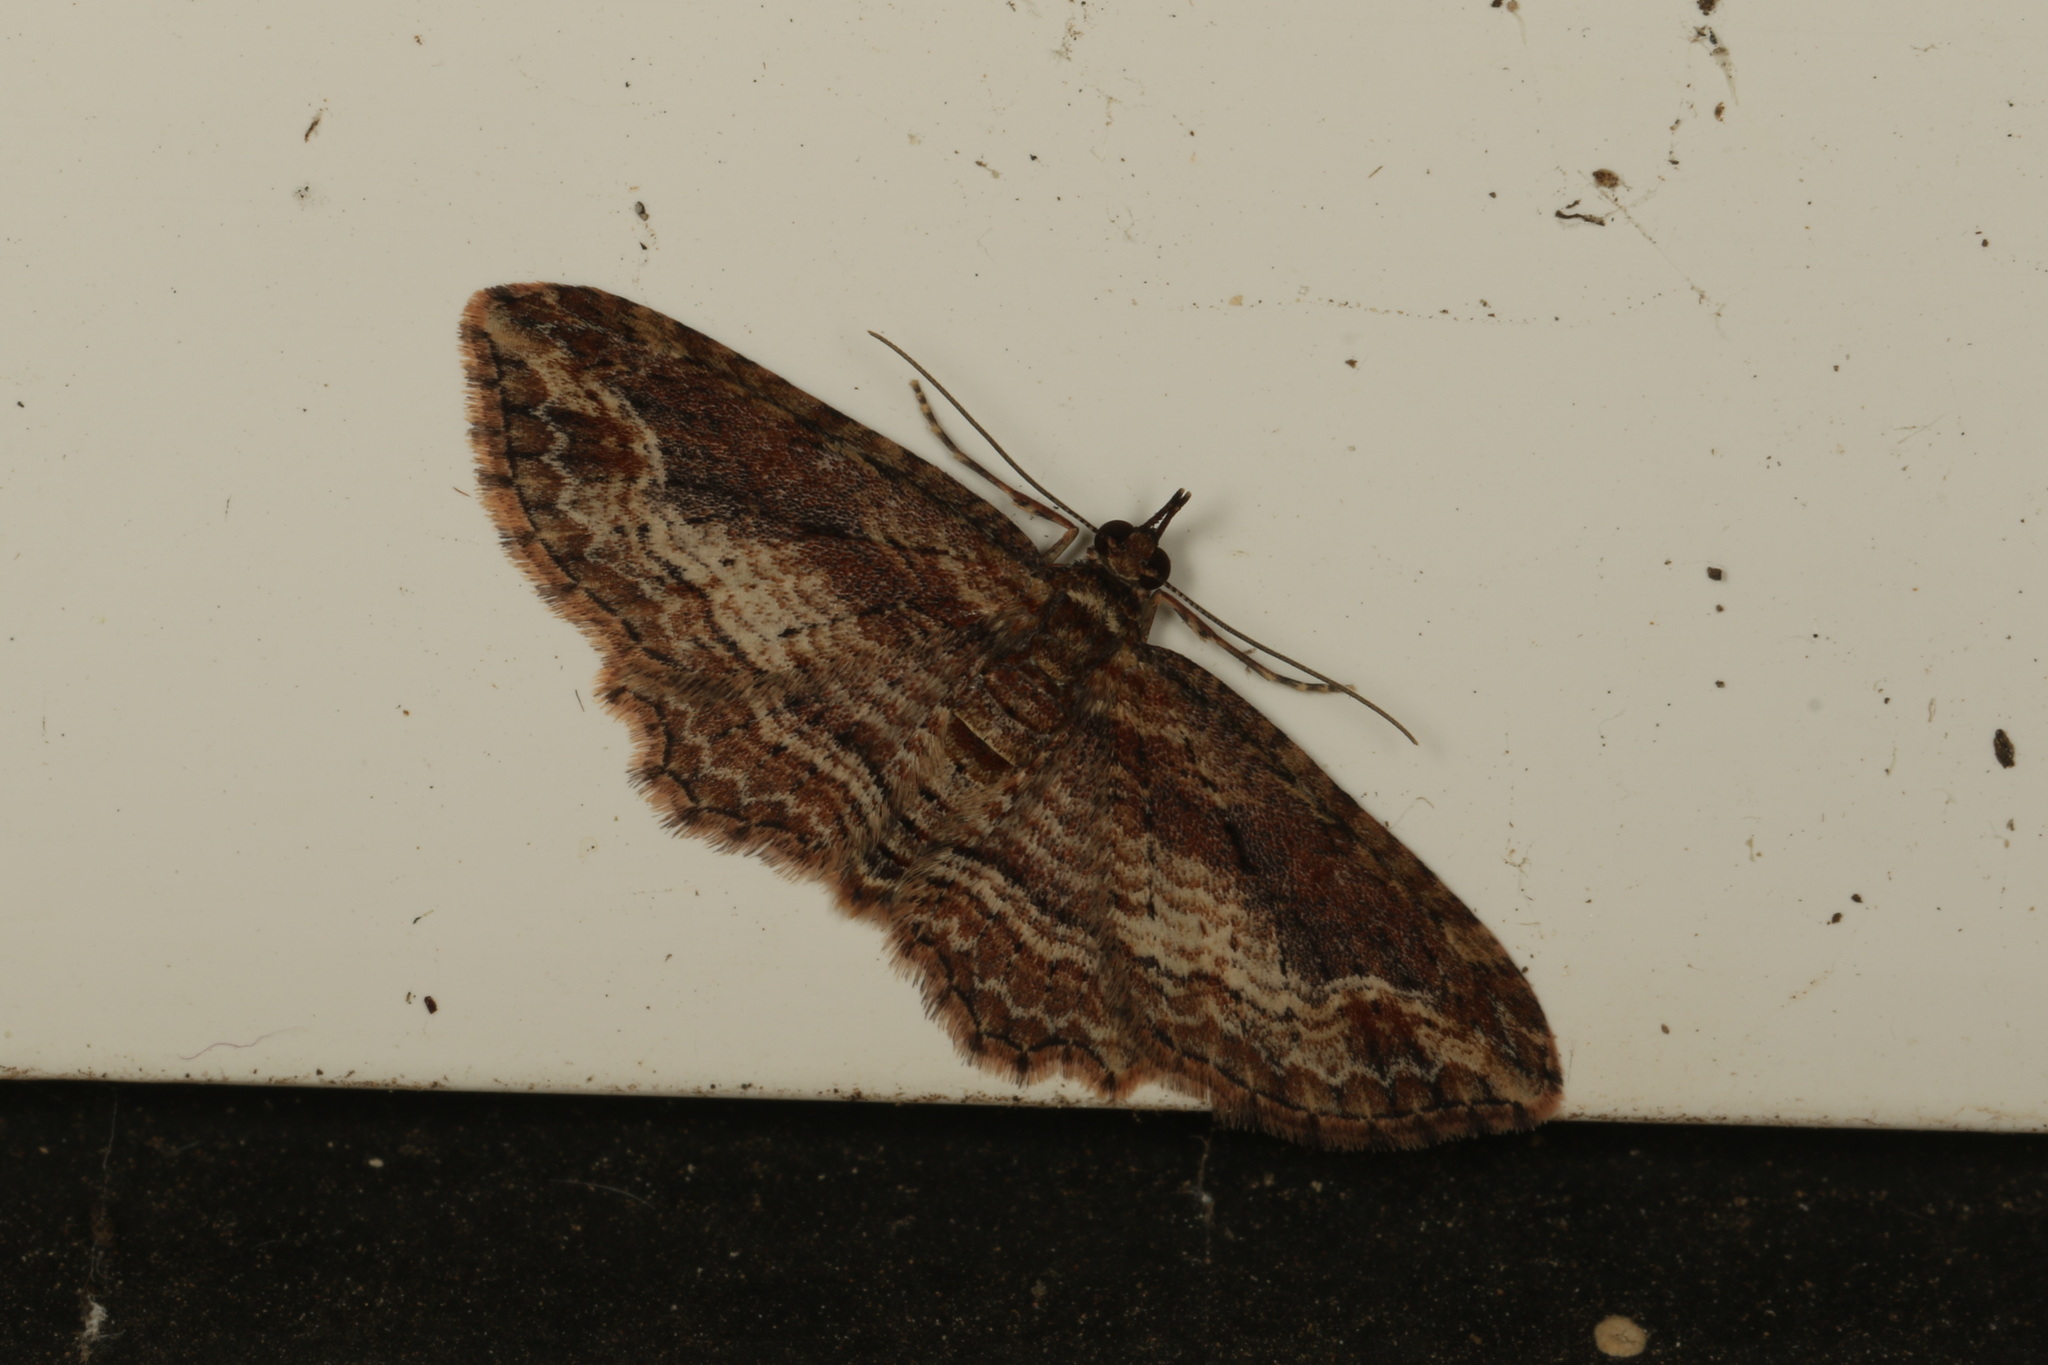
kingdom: Animalia
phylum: Arthropoda
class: Insecta
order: Lepidoptera
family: Geometridae
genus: Chloroclystis
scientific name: Chloroclystis filata
